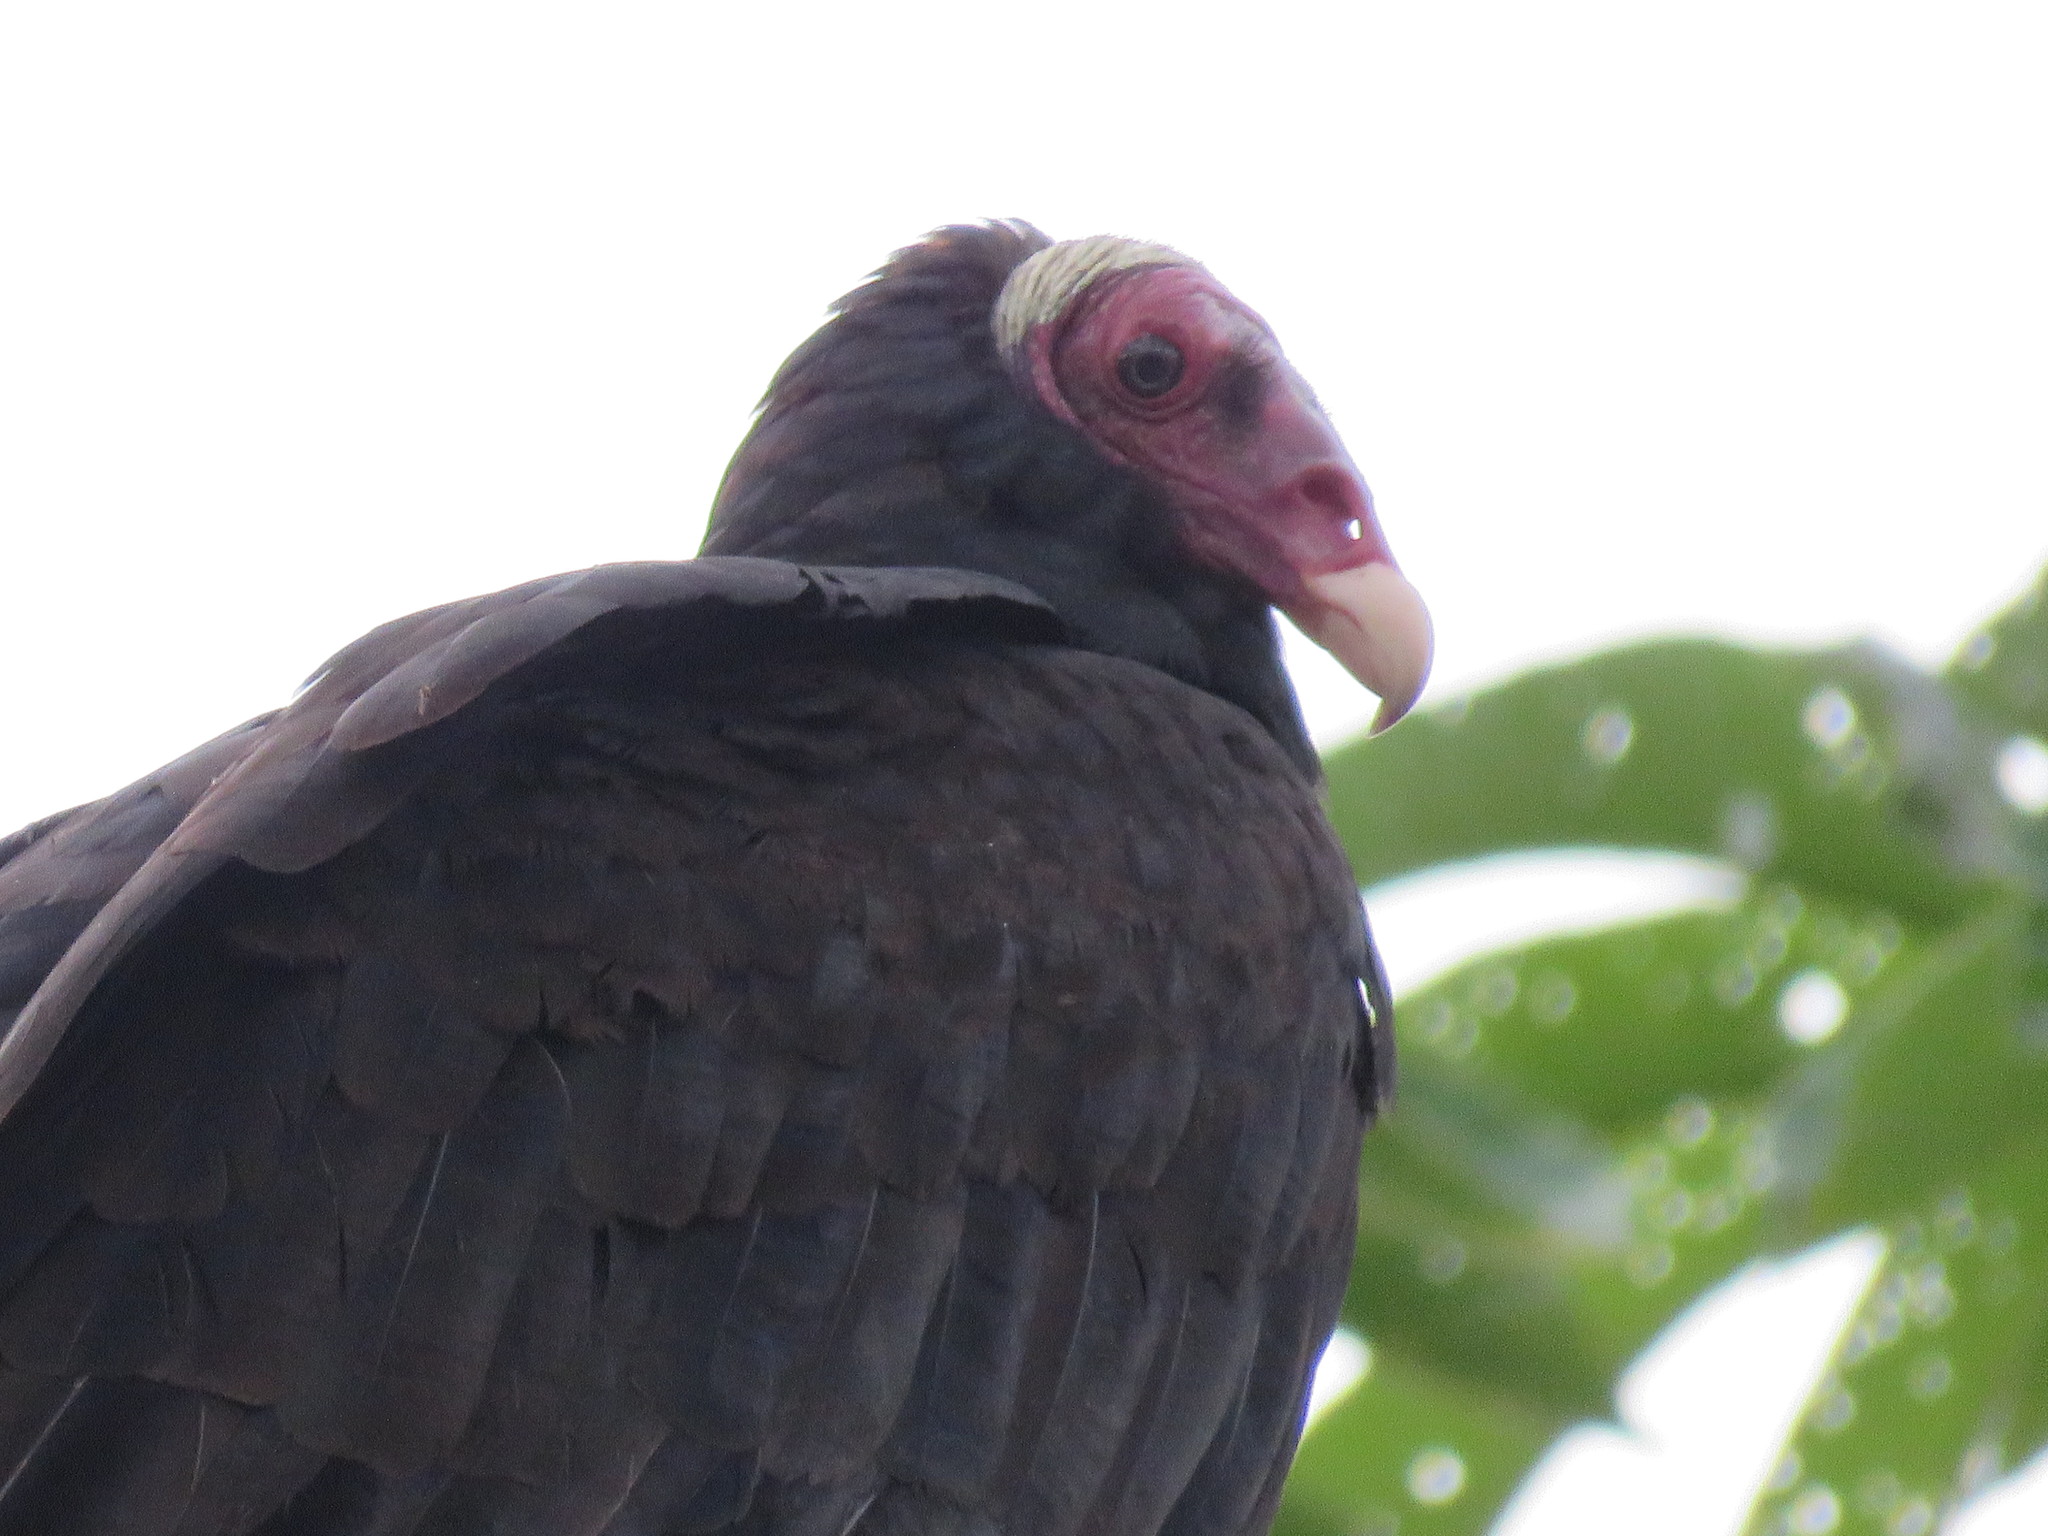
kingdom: Animalia
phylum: Chordata
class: Aves
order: Accipitriformes
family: Cathartidae
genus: Cathartes
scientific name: Cathartes aura
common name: Turkey vulture
